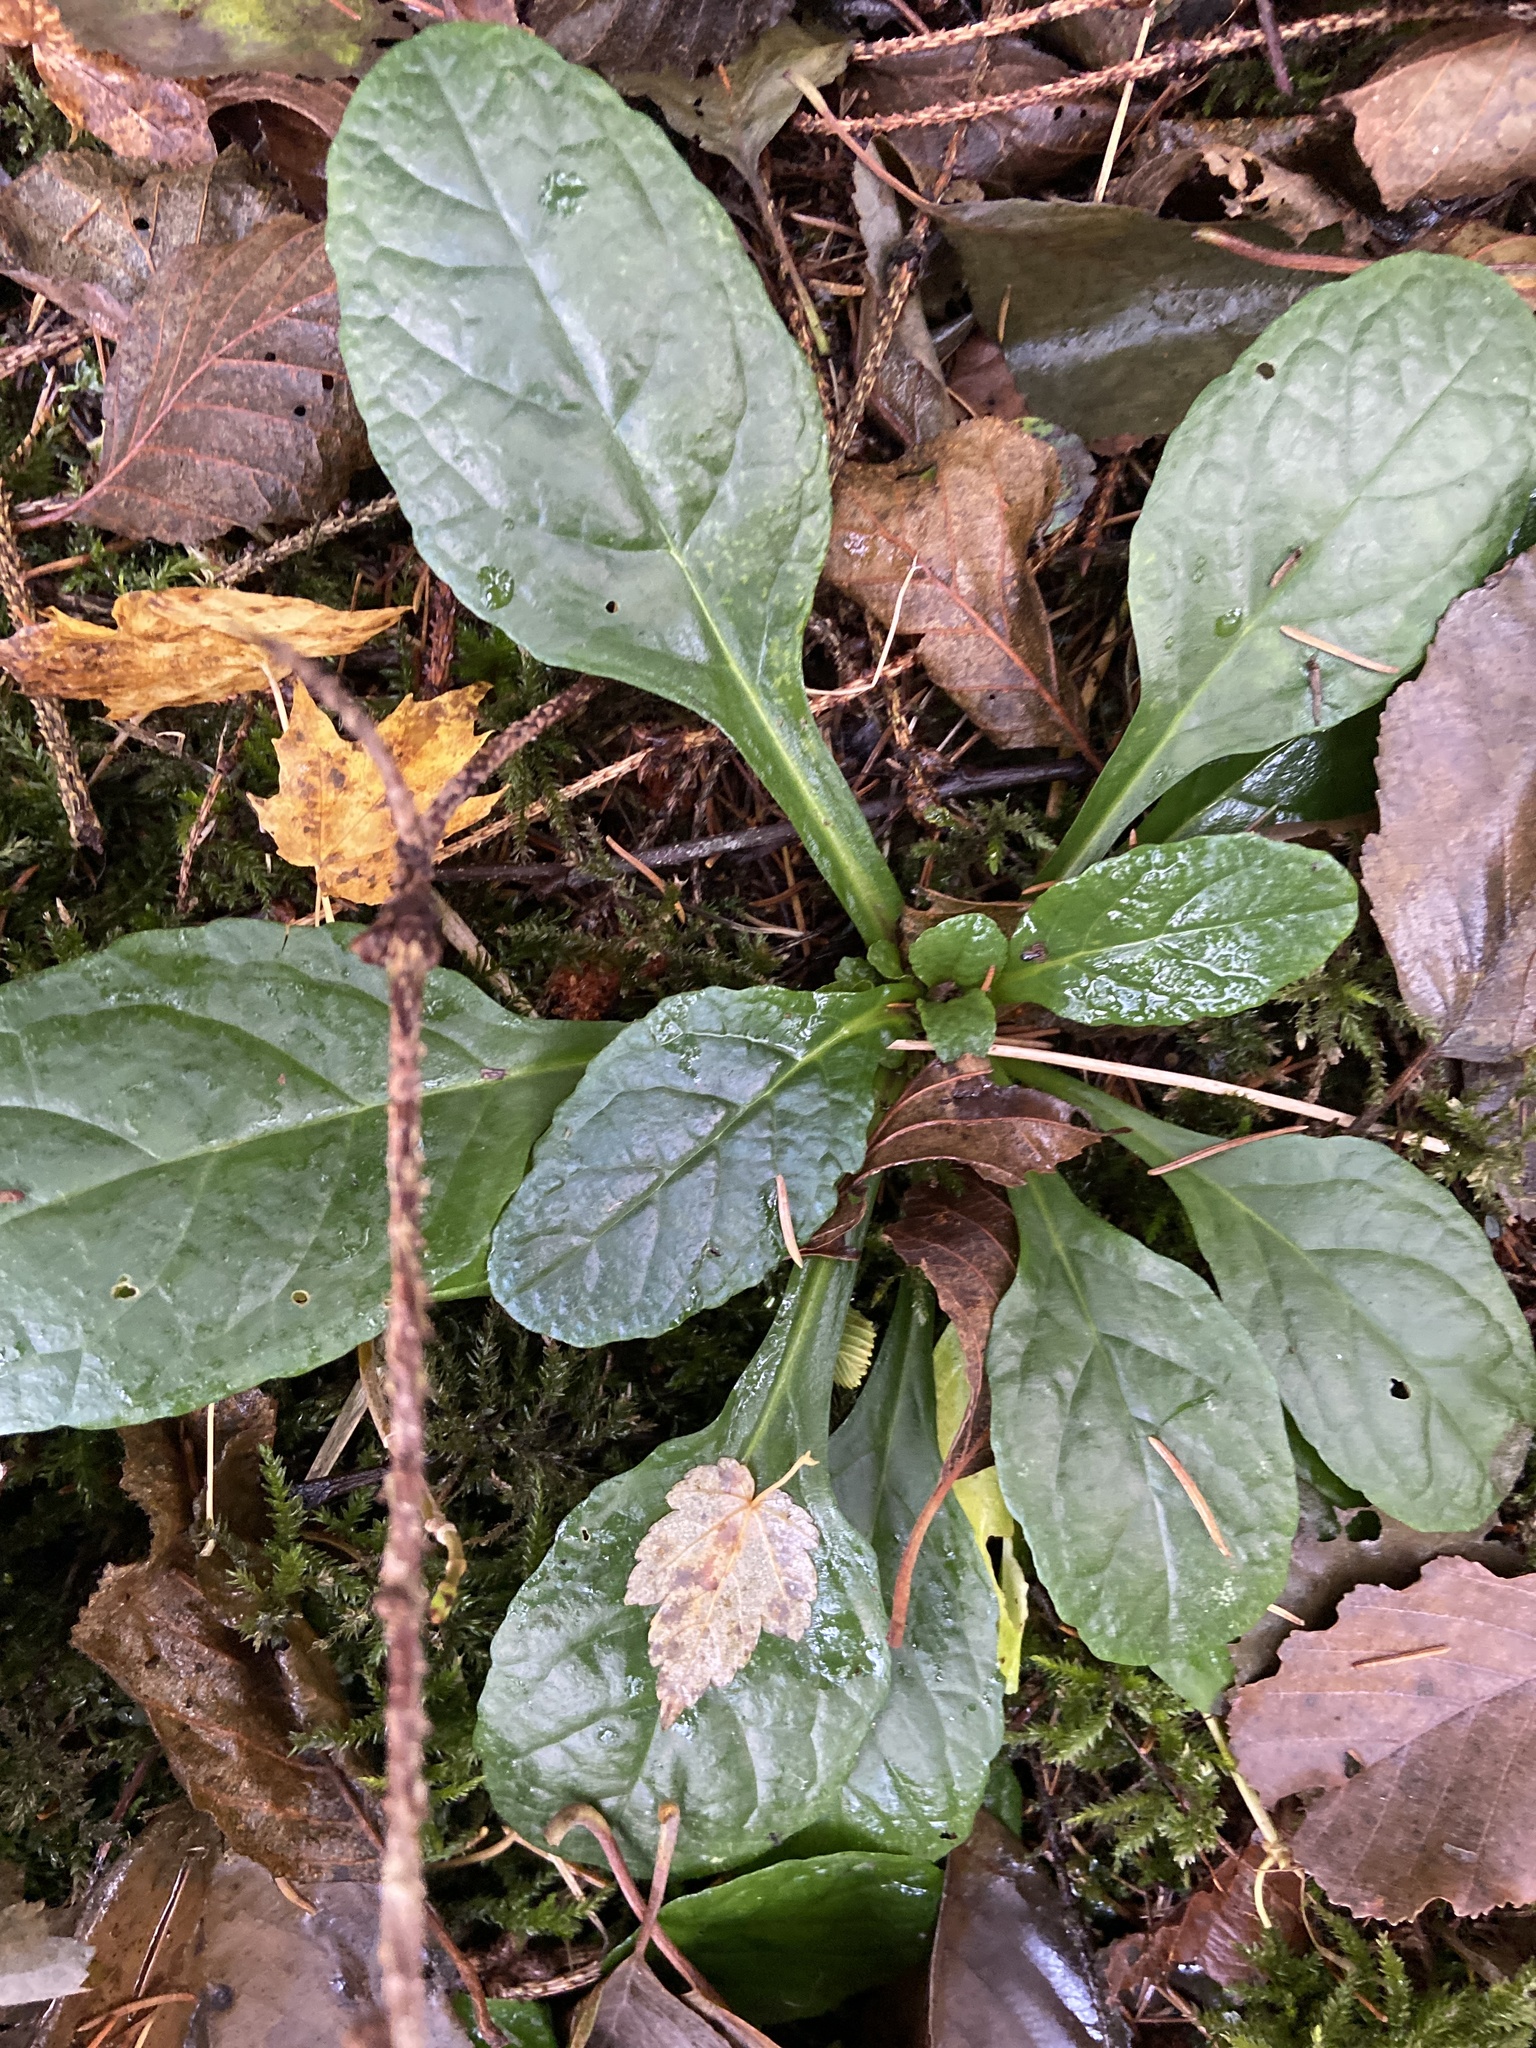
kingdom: Plantae
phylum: Tracheophyta
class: Magnoliopsida
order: Lamiales
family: Lamiaceae
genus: Ajuga
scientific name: Ajuga reptans
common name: Bugle
